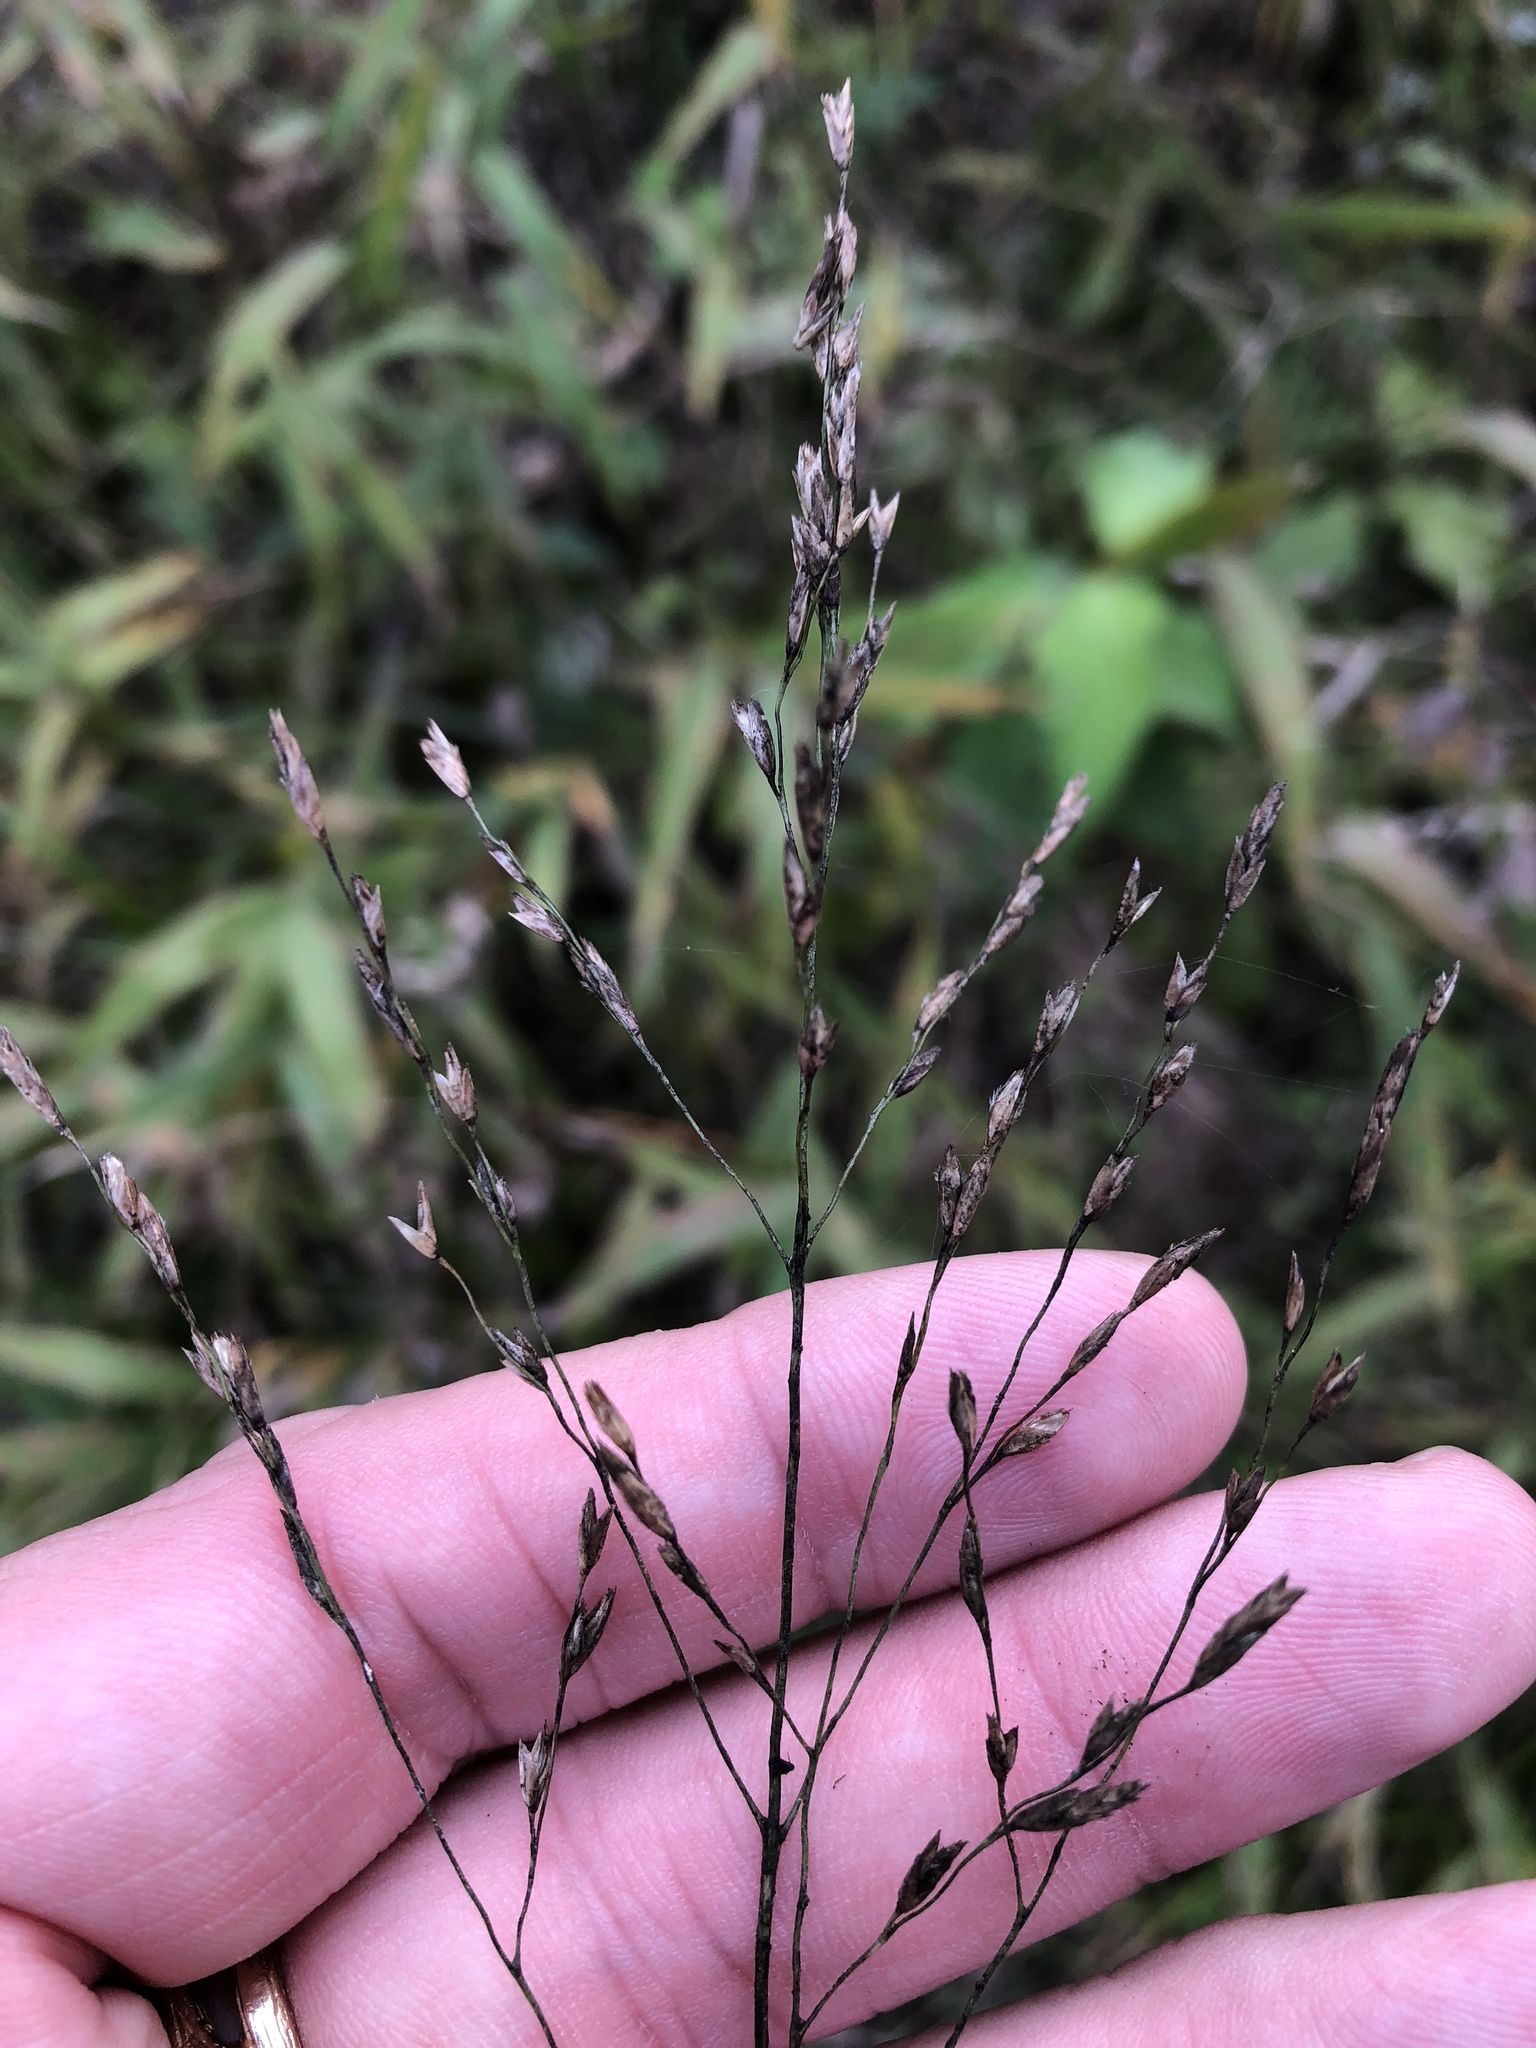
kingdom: Plantae
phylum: Tracheophyta
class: Liliopsida
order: Poales
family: Poaceae
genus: Tridens
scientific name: Tridens flavus
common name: Purpletop
